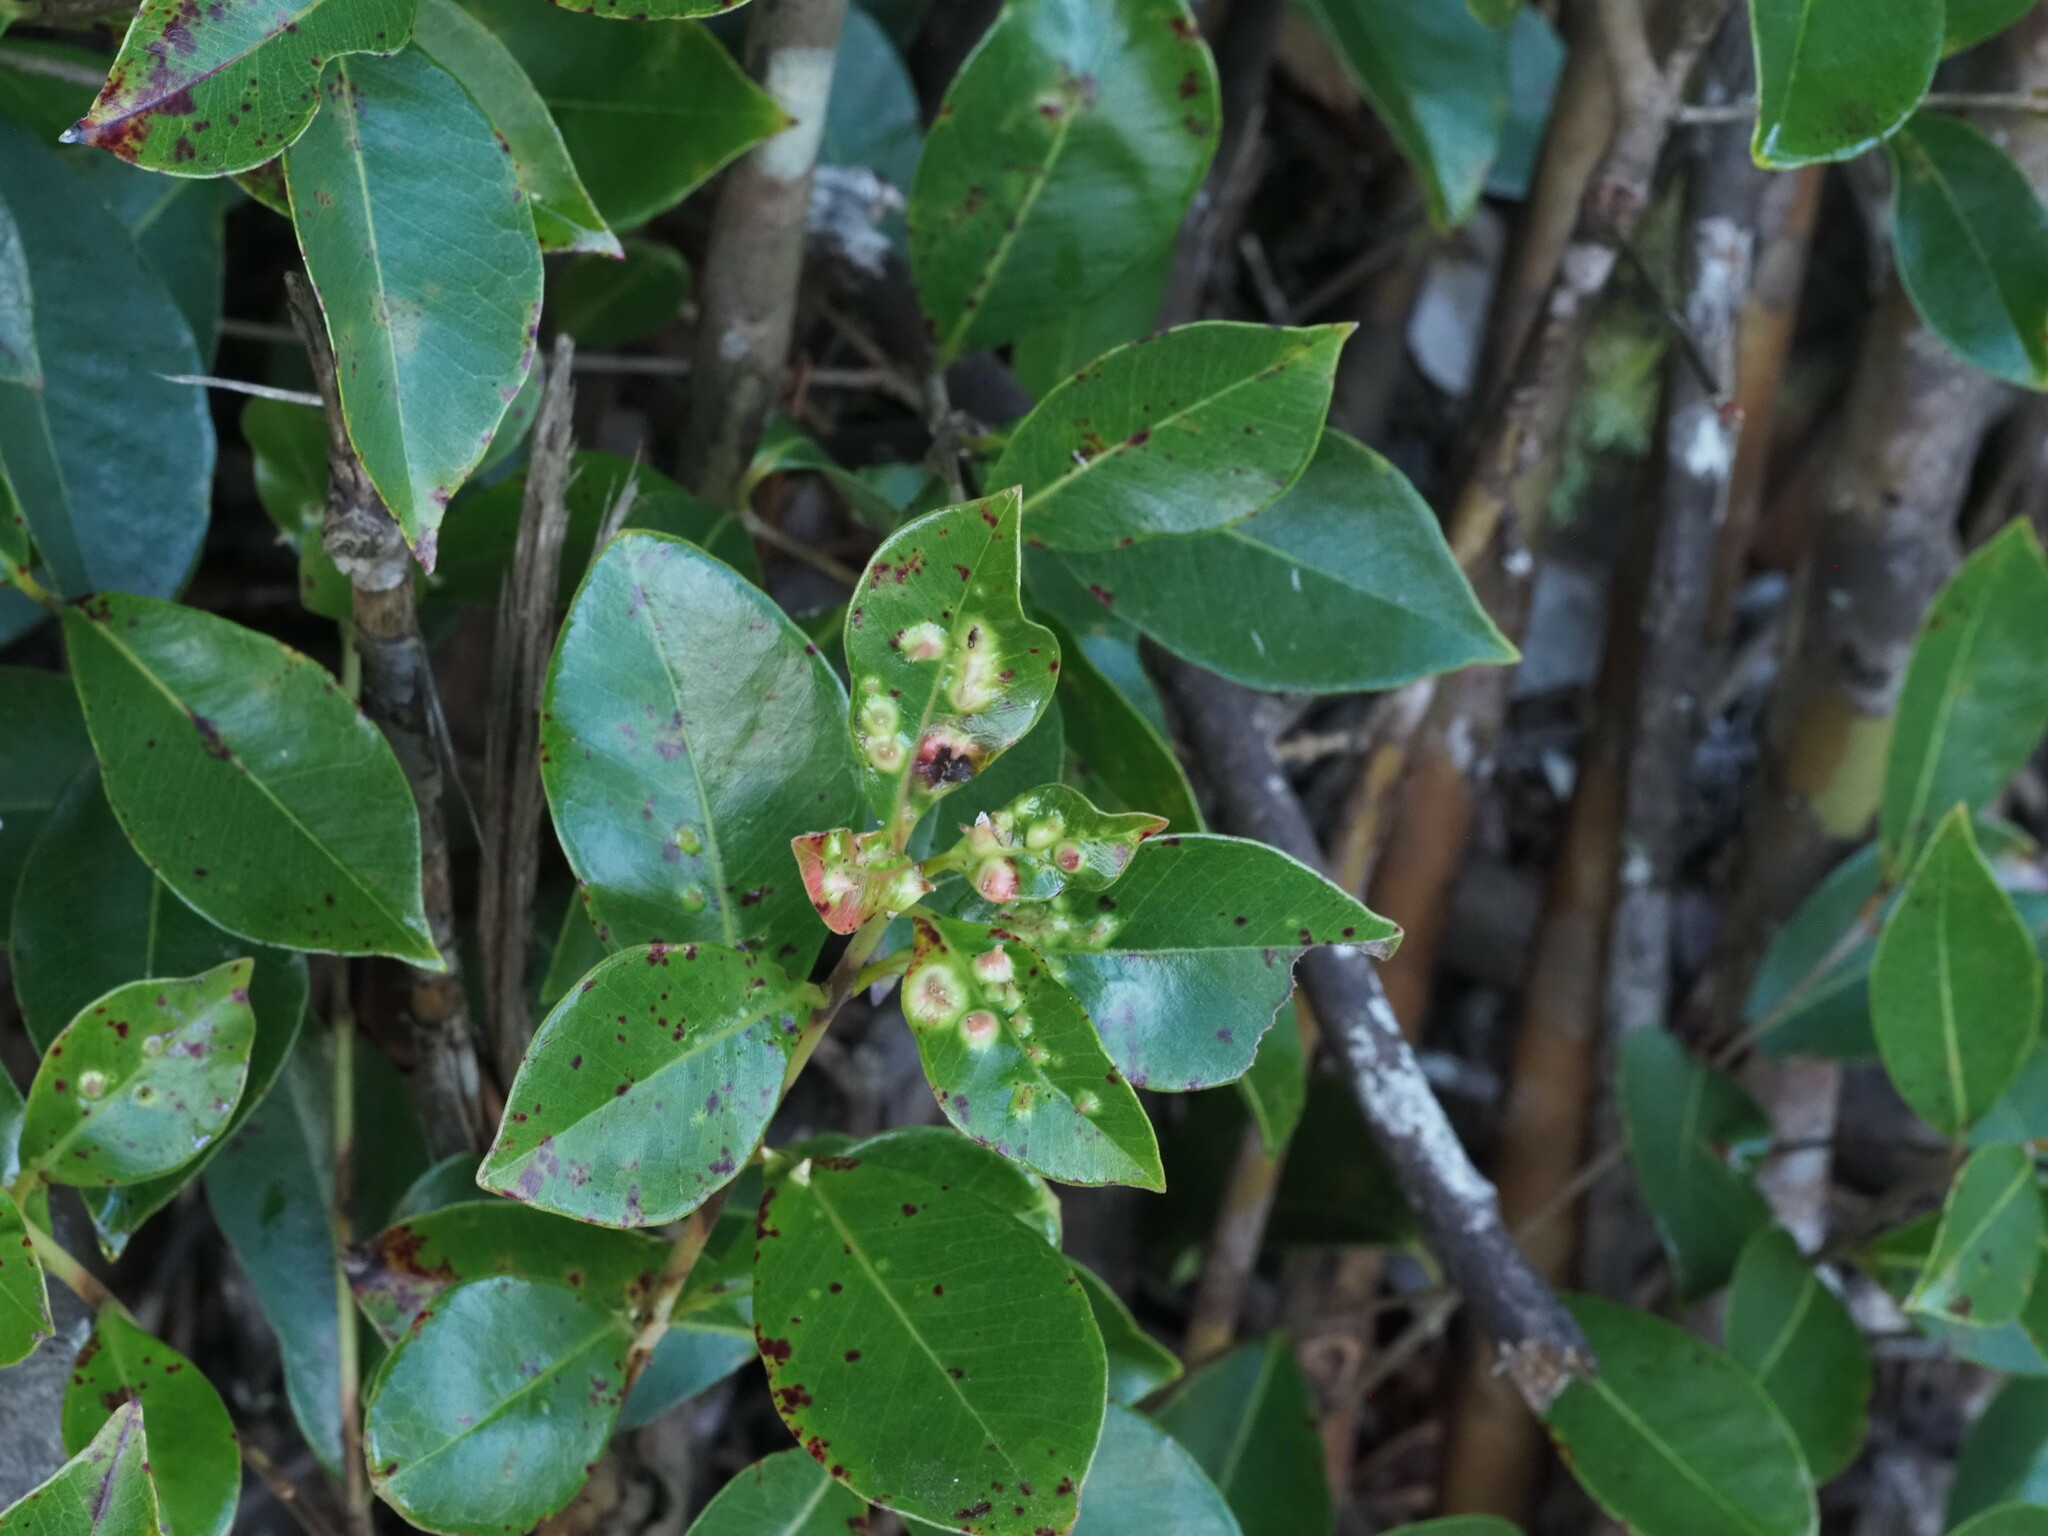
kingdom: Animalia
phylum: Arthropoda
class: Insecta
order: Hemiptera
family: Eriococcidae
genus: Tectococcus
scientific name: Tectococcus ovatus
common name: Eriococcid scale
